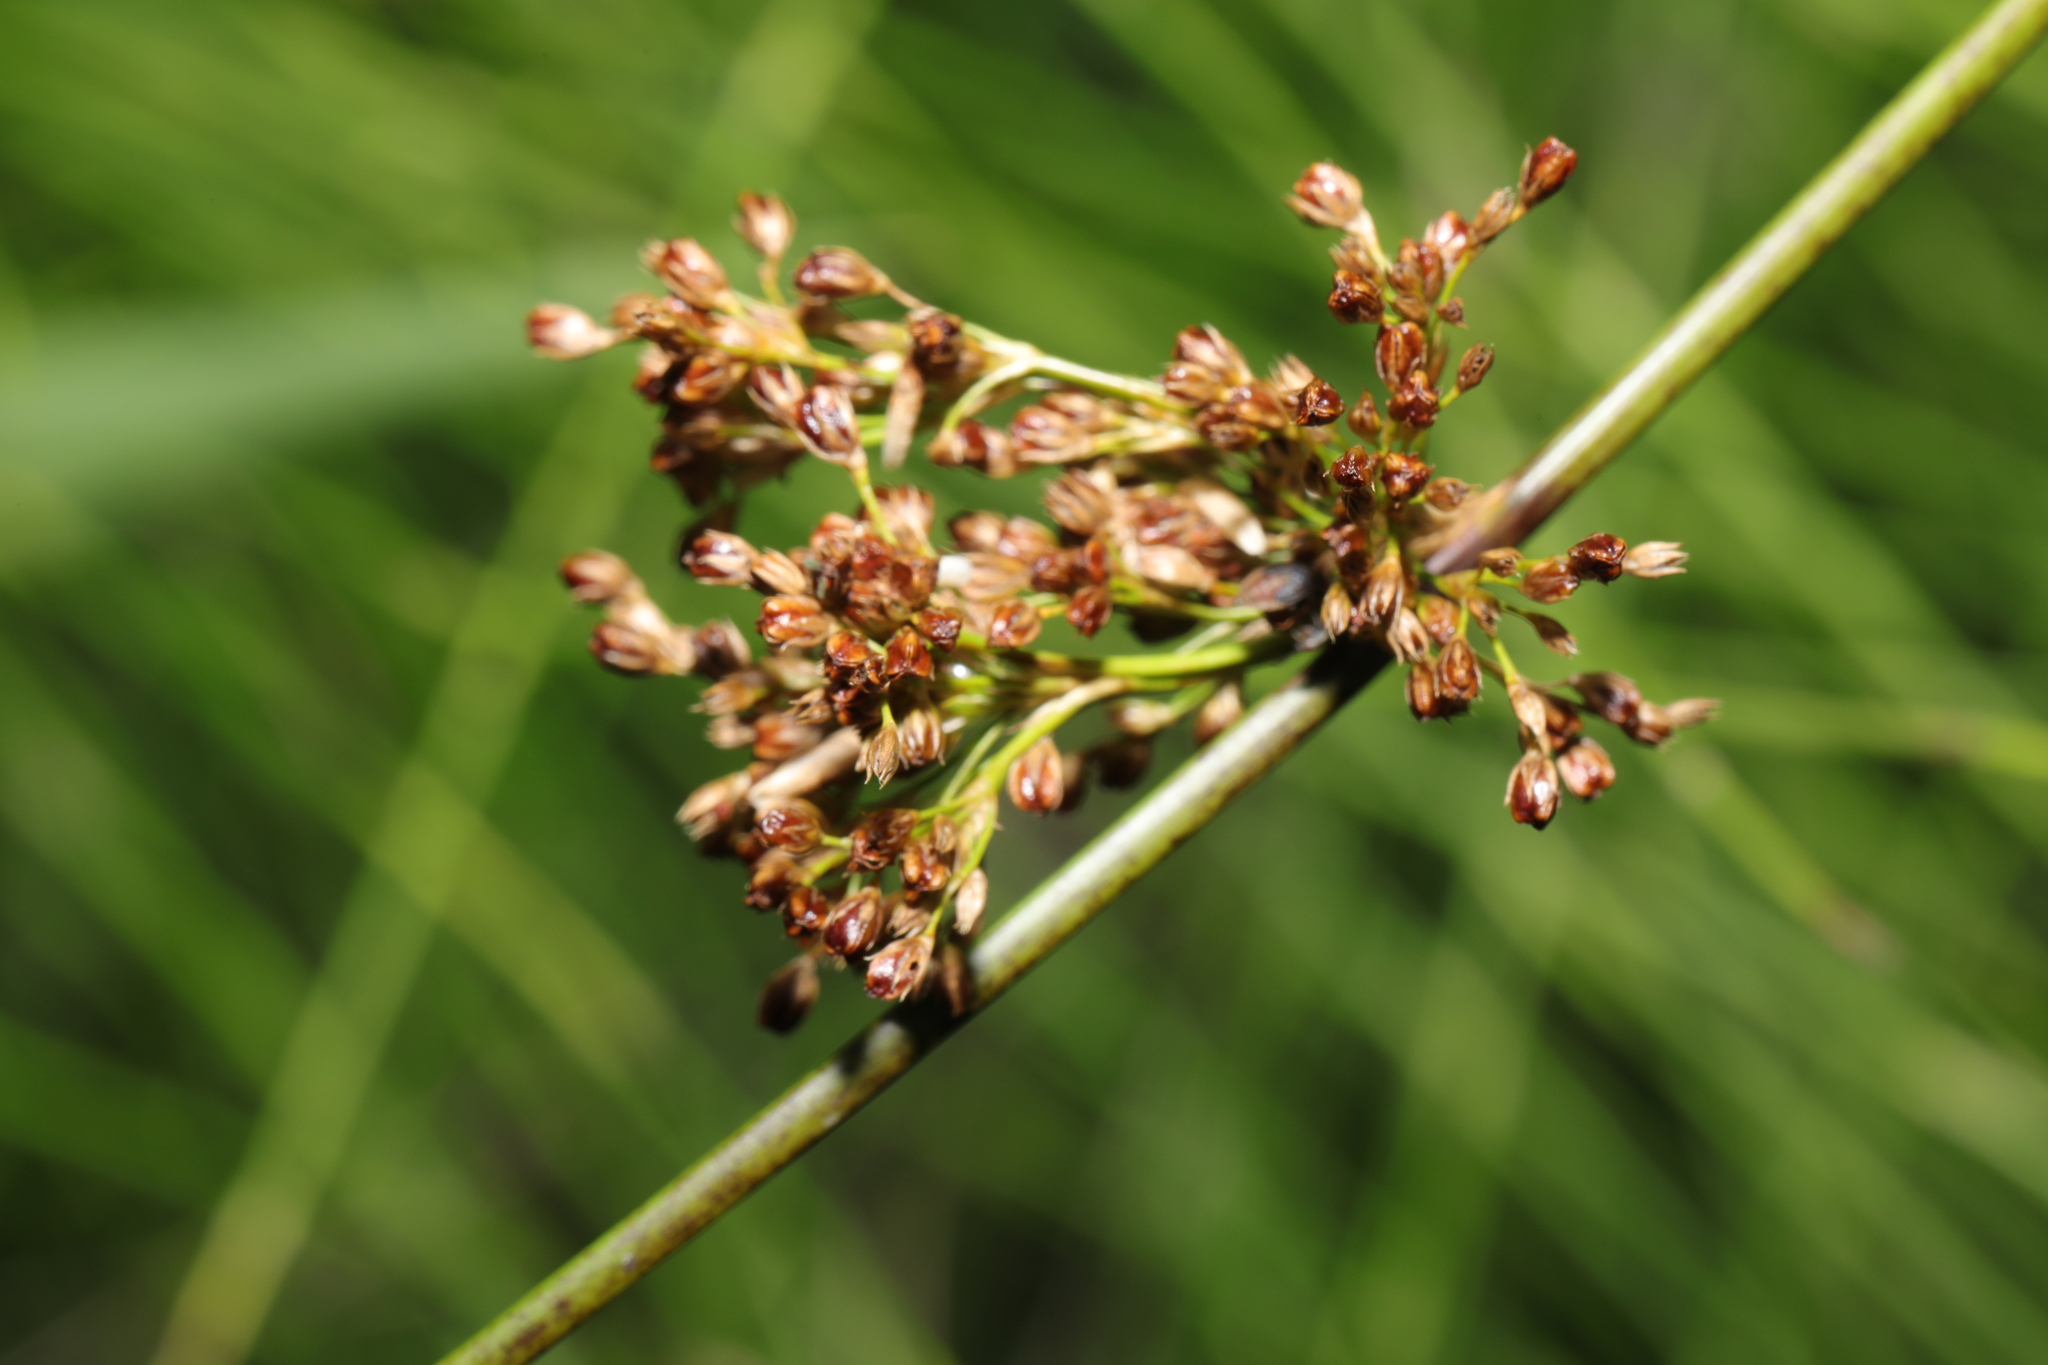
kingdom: Plantae
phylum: Tracheophyta
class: Liliopsida
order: Poales
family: Juncaceae
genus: Juncus
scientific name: Juncus effusus
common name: Soft rush
